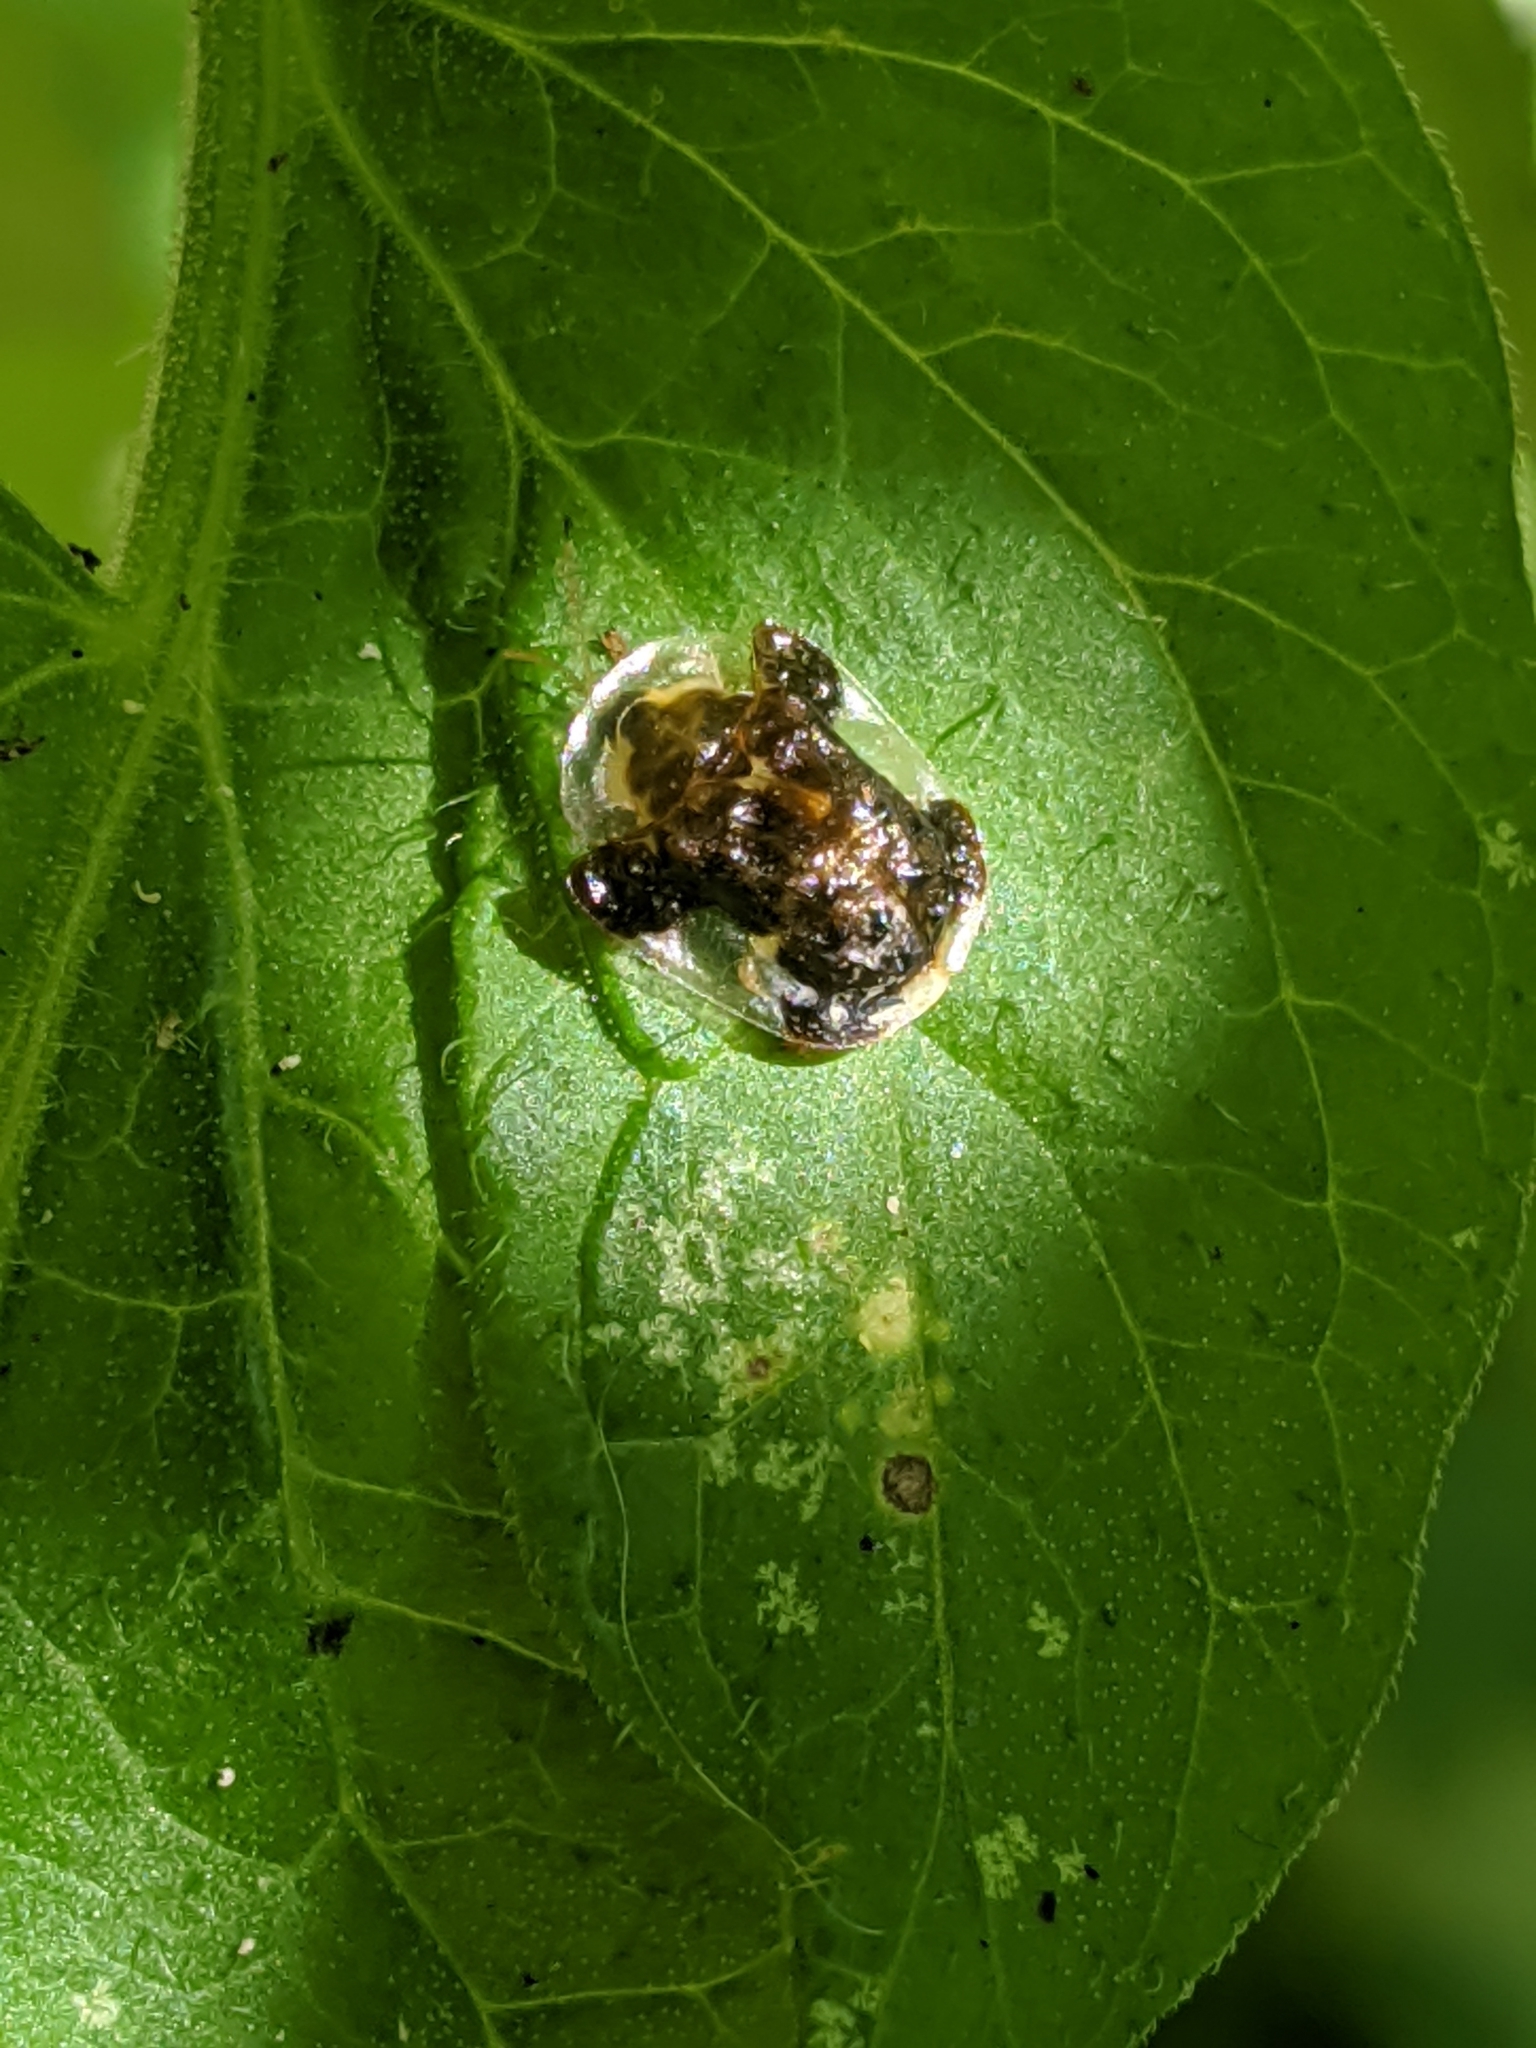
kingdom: Animalia
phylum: Arthropoda
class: Insecta
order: Coleoptera
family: Chrysomelidae
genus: Helocassis
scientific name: Helocassis clavata
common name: Clavate tortoise beetle
